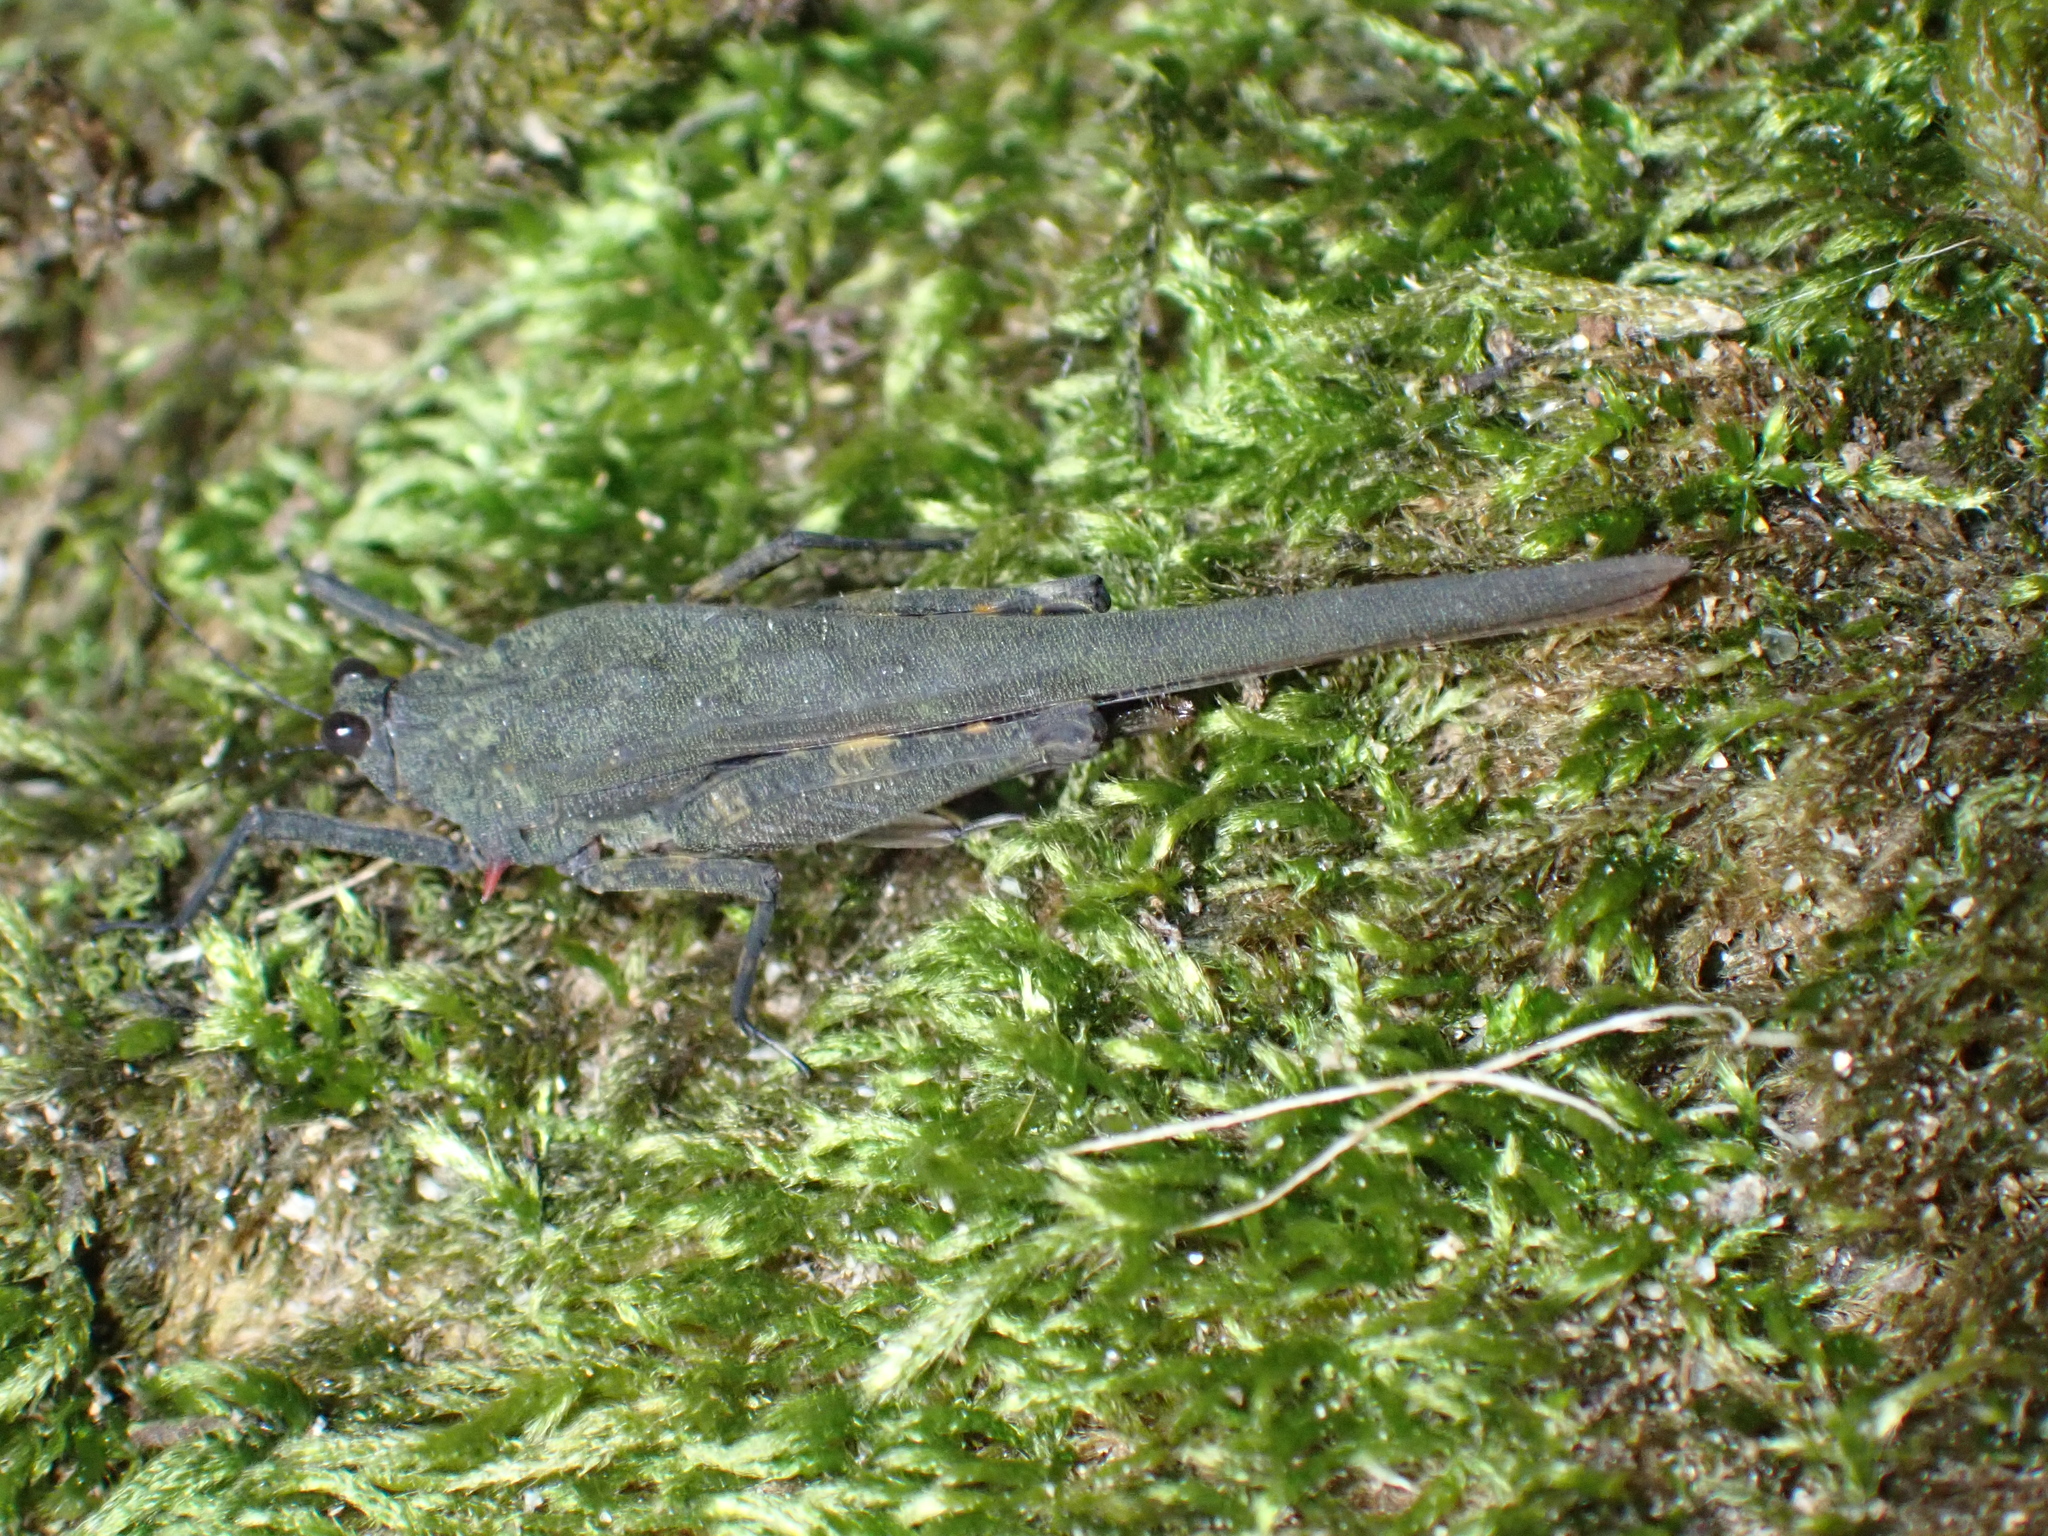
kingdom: Animalia
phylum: Arthropoda
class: Insecta
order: Orthoptera
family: Tetrigidae
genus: Scelimena
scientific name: Scelimena bellula
